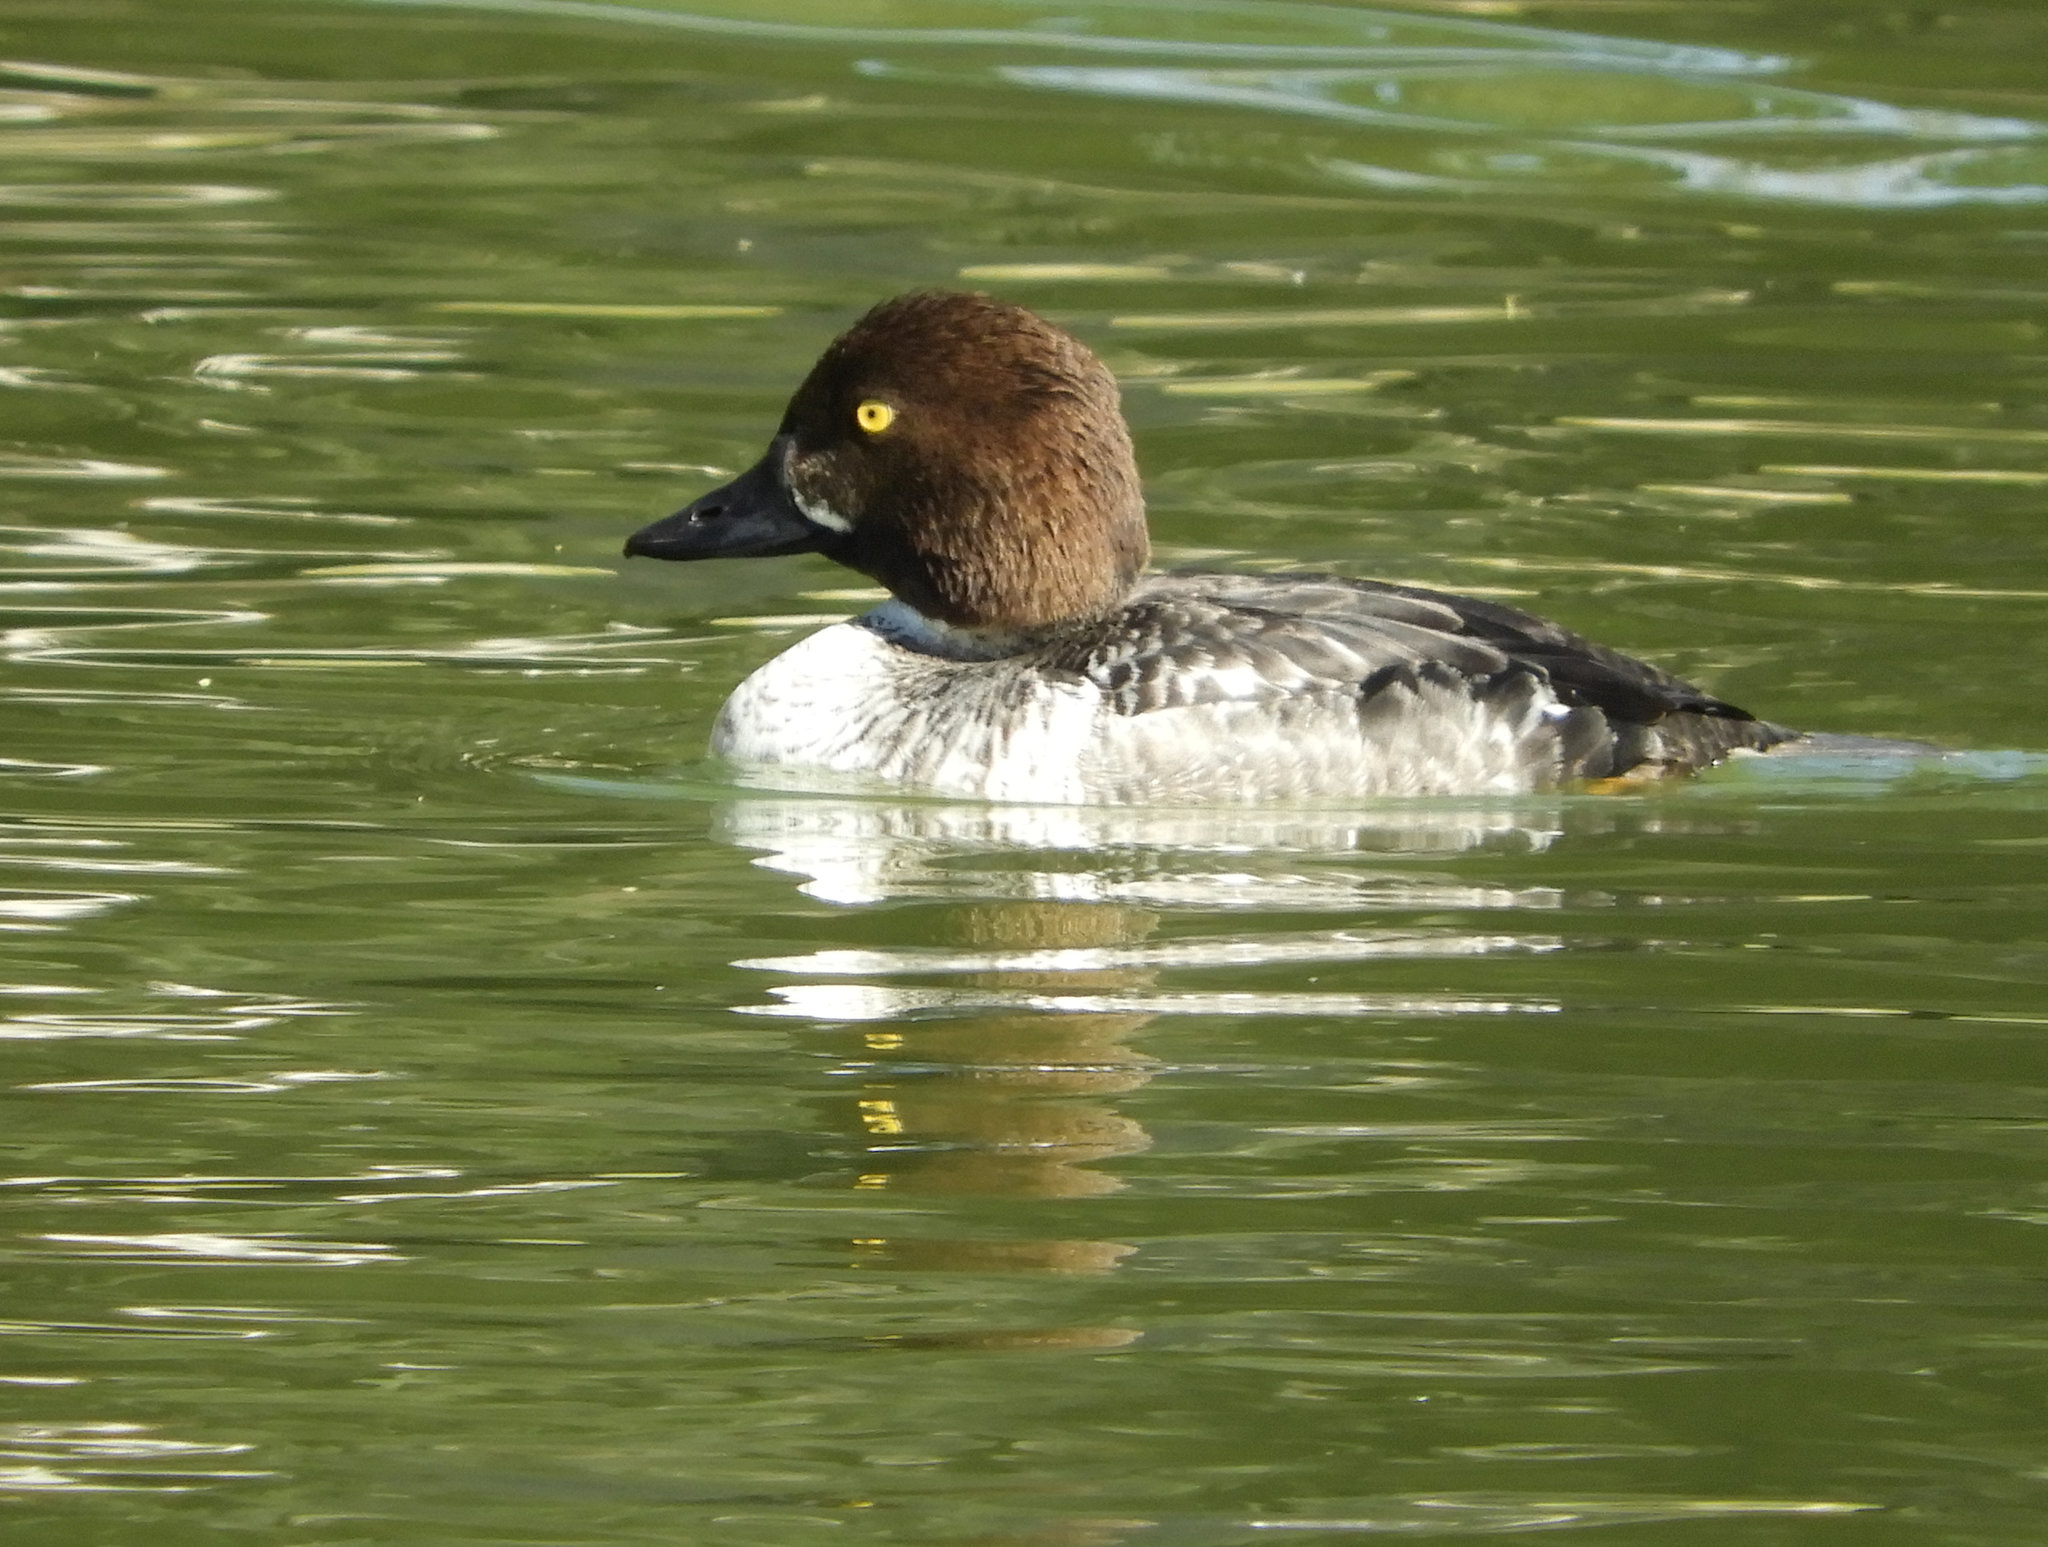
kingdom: Animalia
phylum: Chordata
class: Aves
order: Anseriformes
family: Anatidae
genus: Bucephala
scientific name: Bucephala clangula
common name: Common goldeneye
